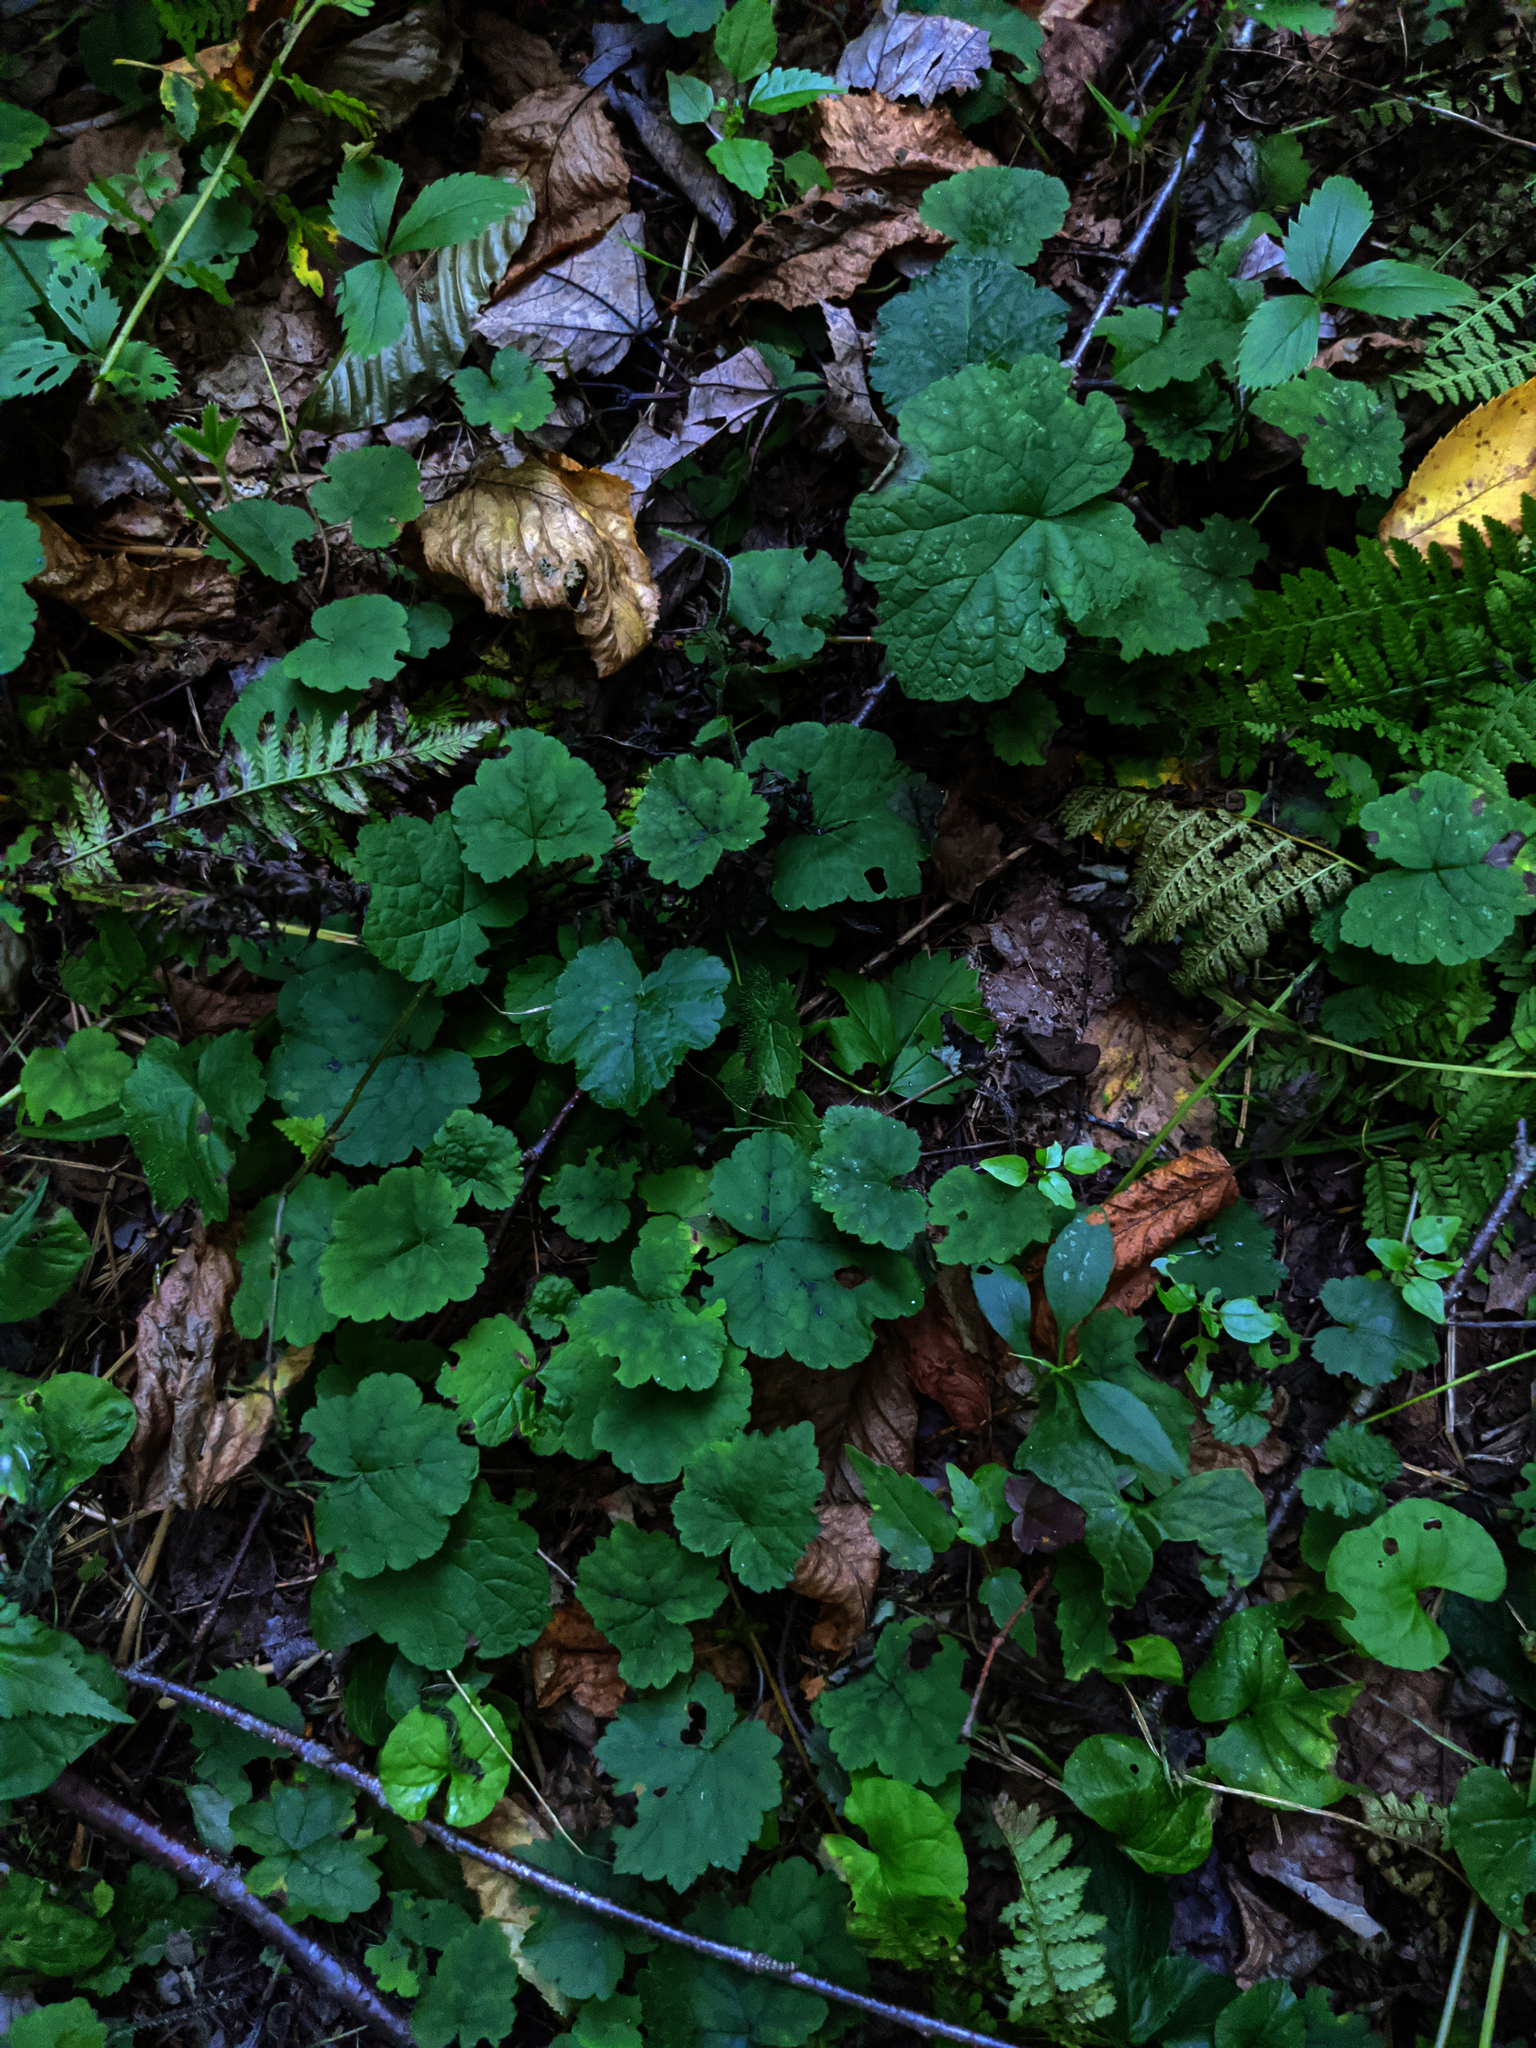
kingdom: Plantae
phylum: Tracheophyta
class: Magnoliopsida
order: Saxifragales
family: Saxifragaceae
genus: Tiarella
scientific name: Tiarella stolonifera
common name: Stoloniferous foamflower
